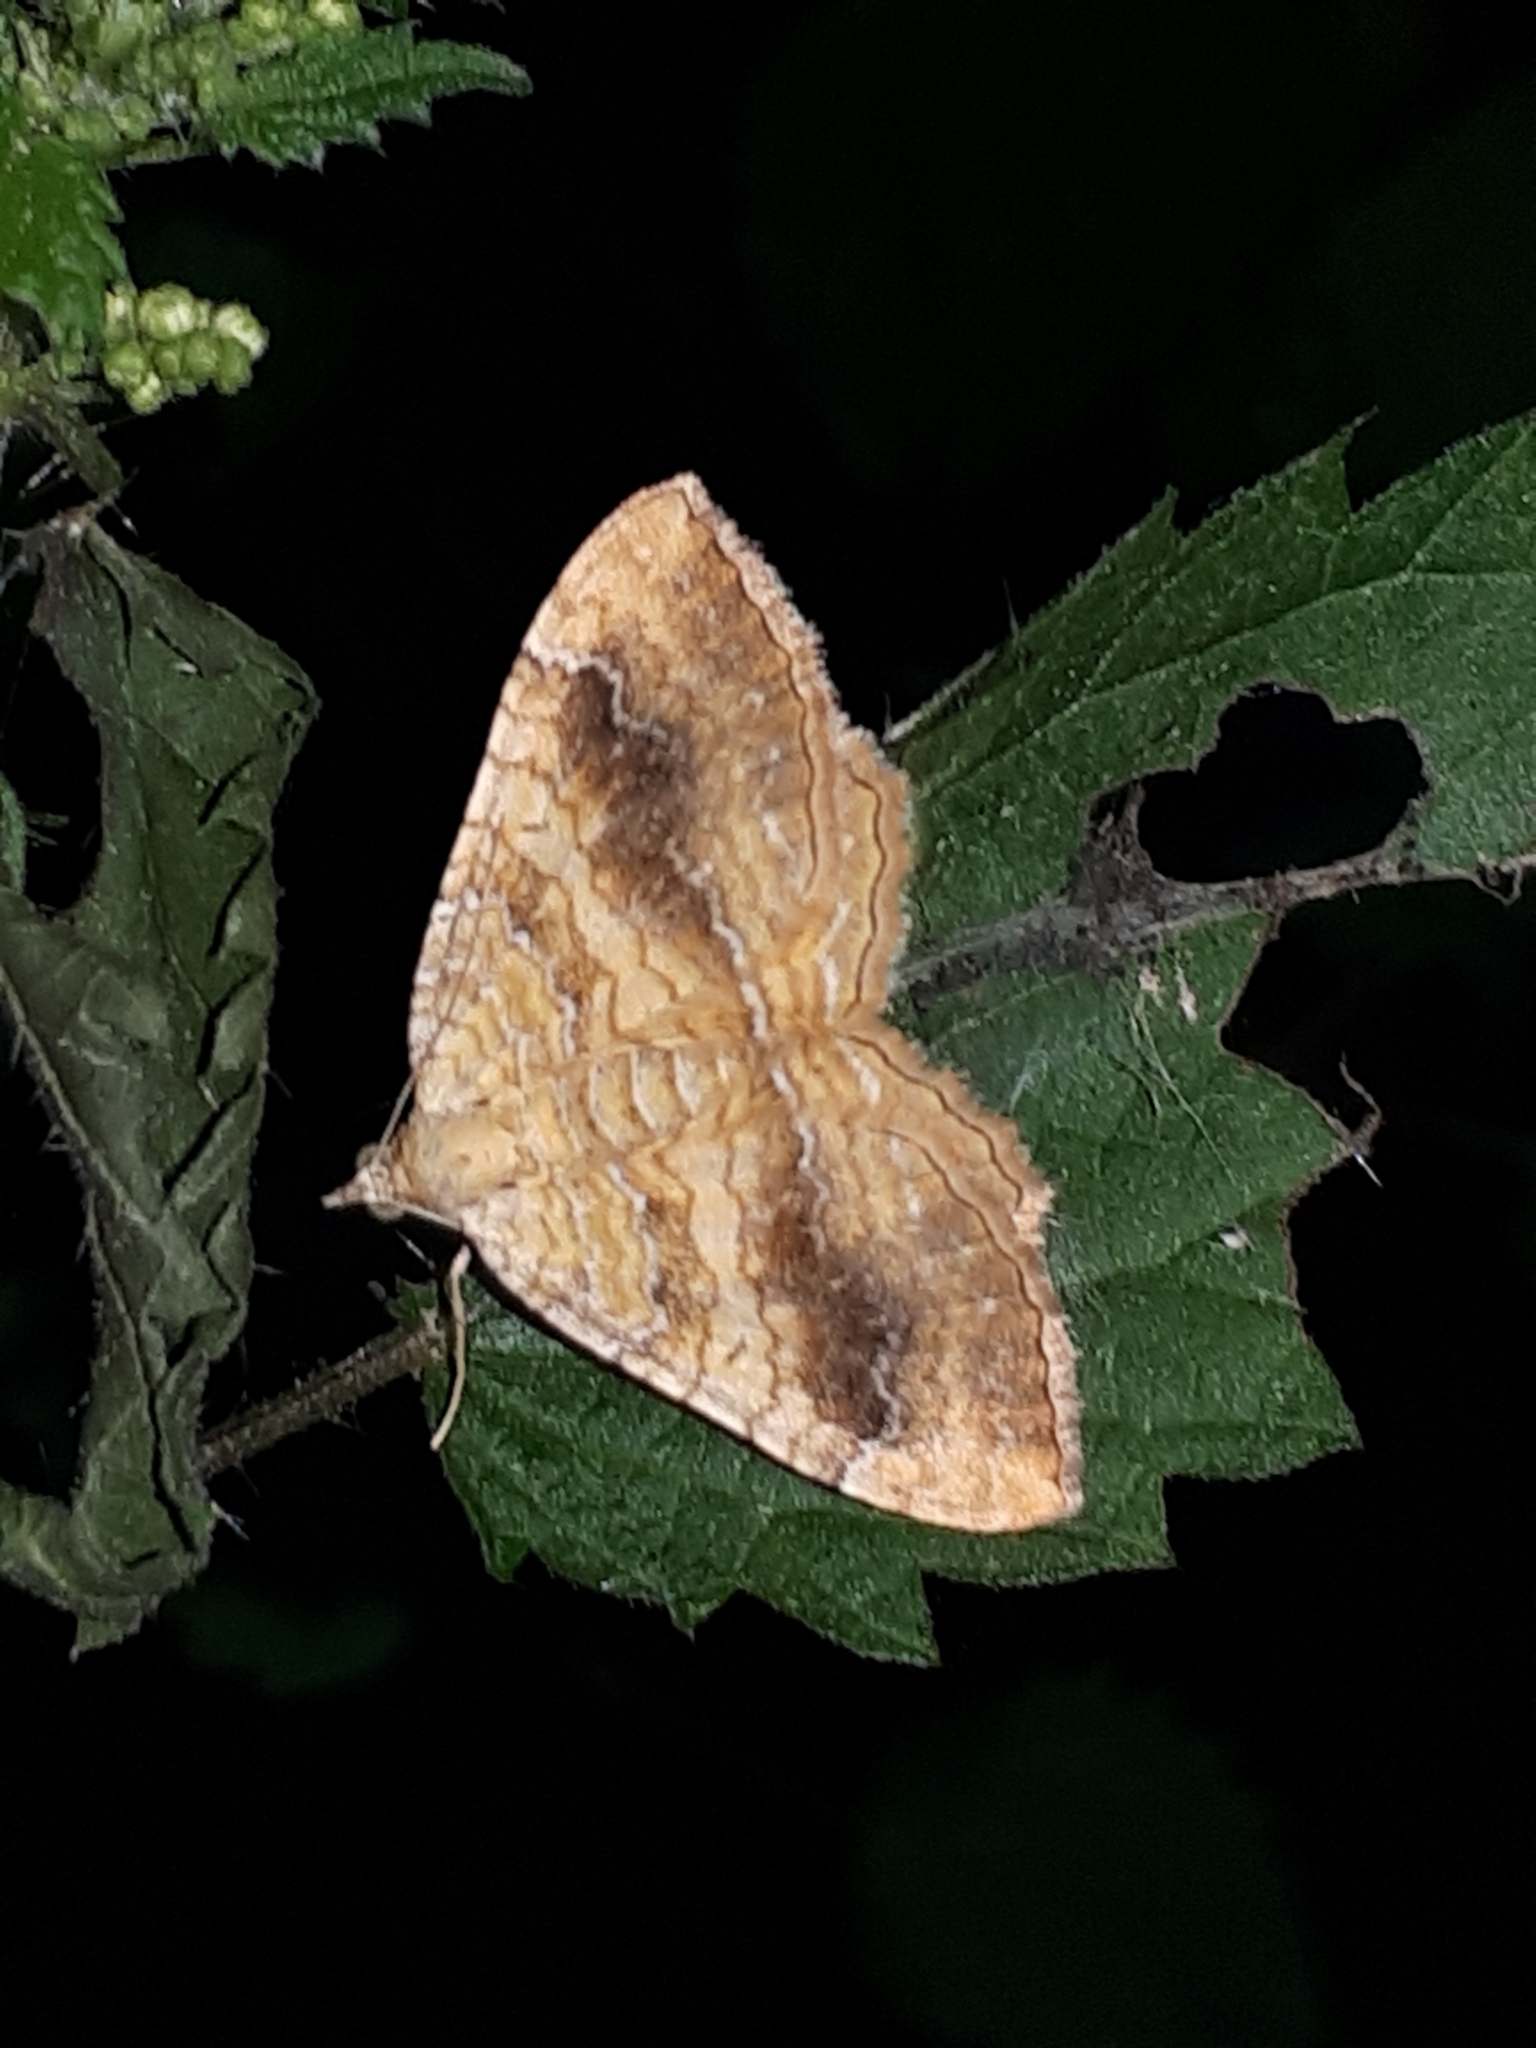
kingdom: Animalia
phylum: Arthropoda
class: Insecta
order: Lepidoptera
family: Geometridae
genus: Camptogramma
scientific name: Camptogramma bilineata
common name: Yellow shell
